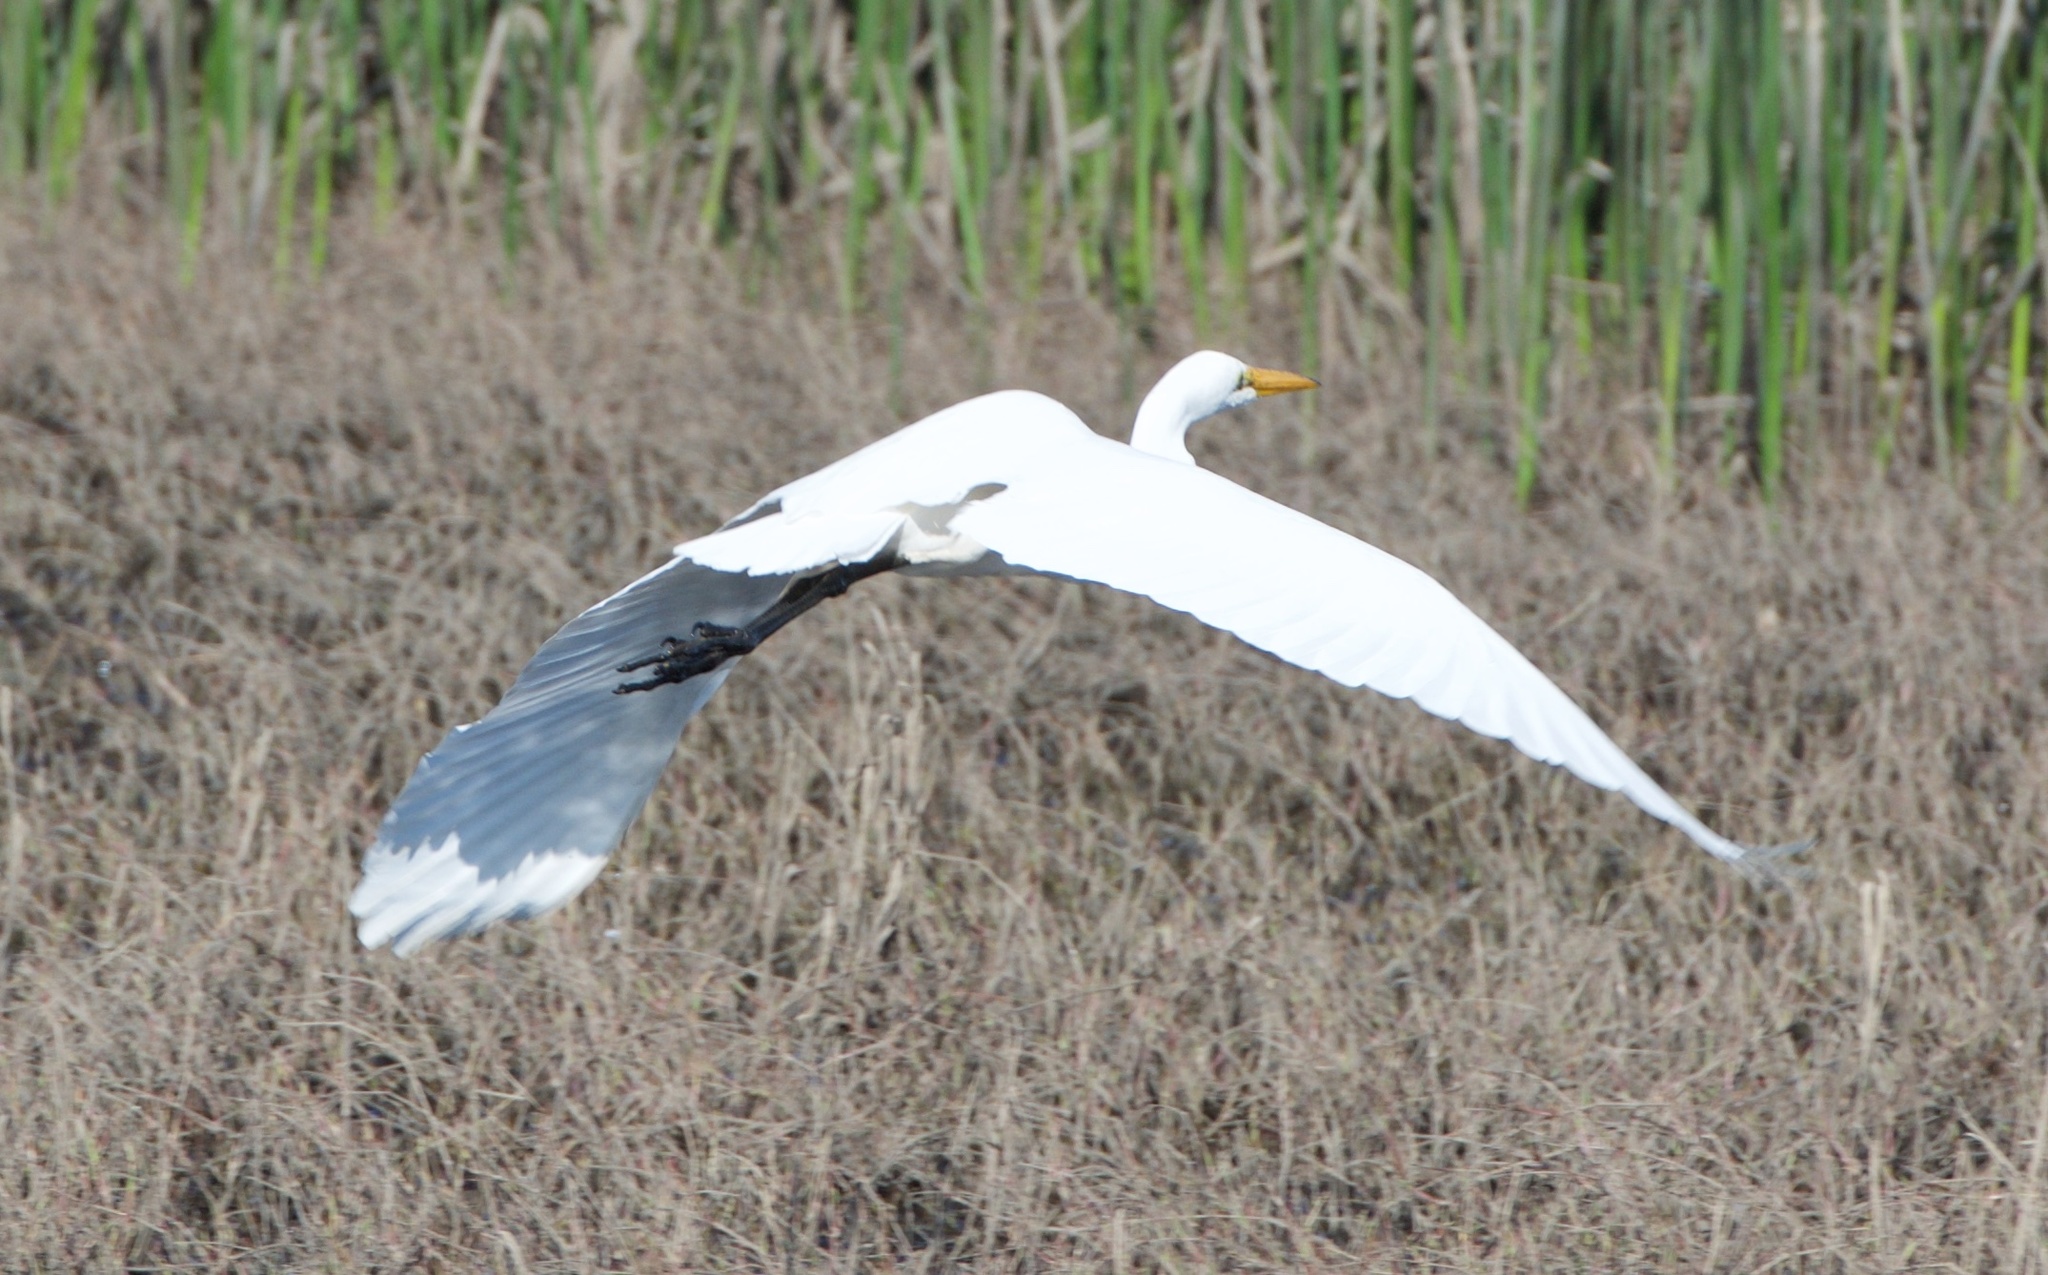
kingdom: Animalia
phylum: Chordata
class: Aves
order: Pelecaniformes
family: Ardeidae
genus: Ardea
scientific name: Ardea alba
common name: Great egret
